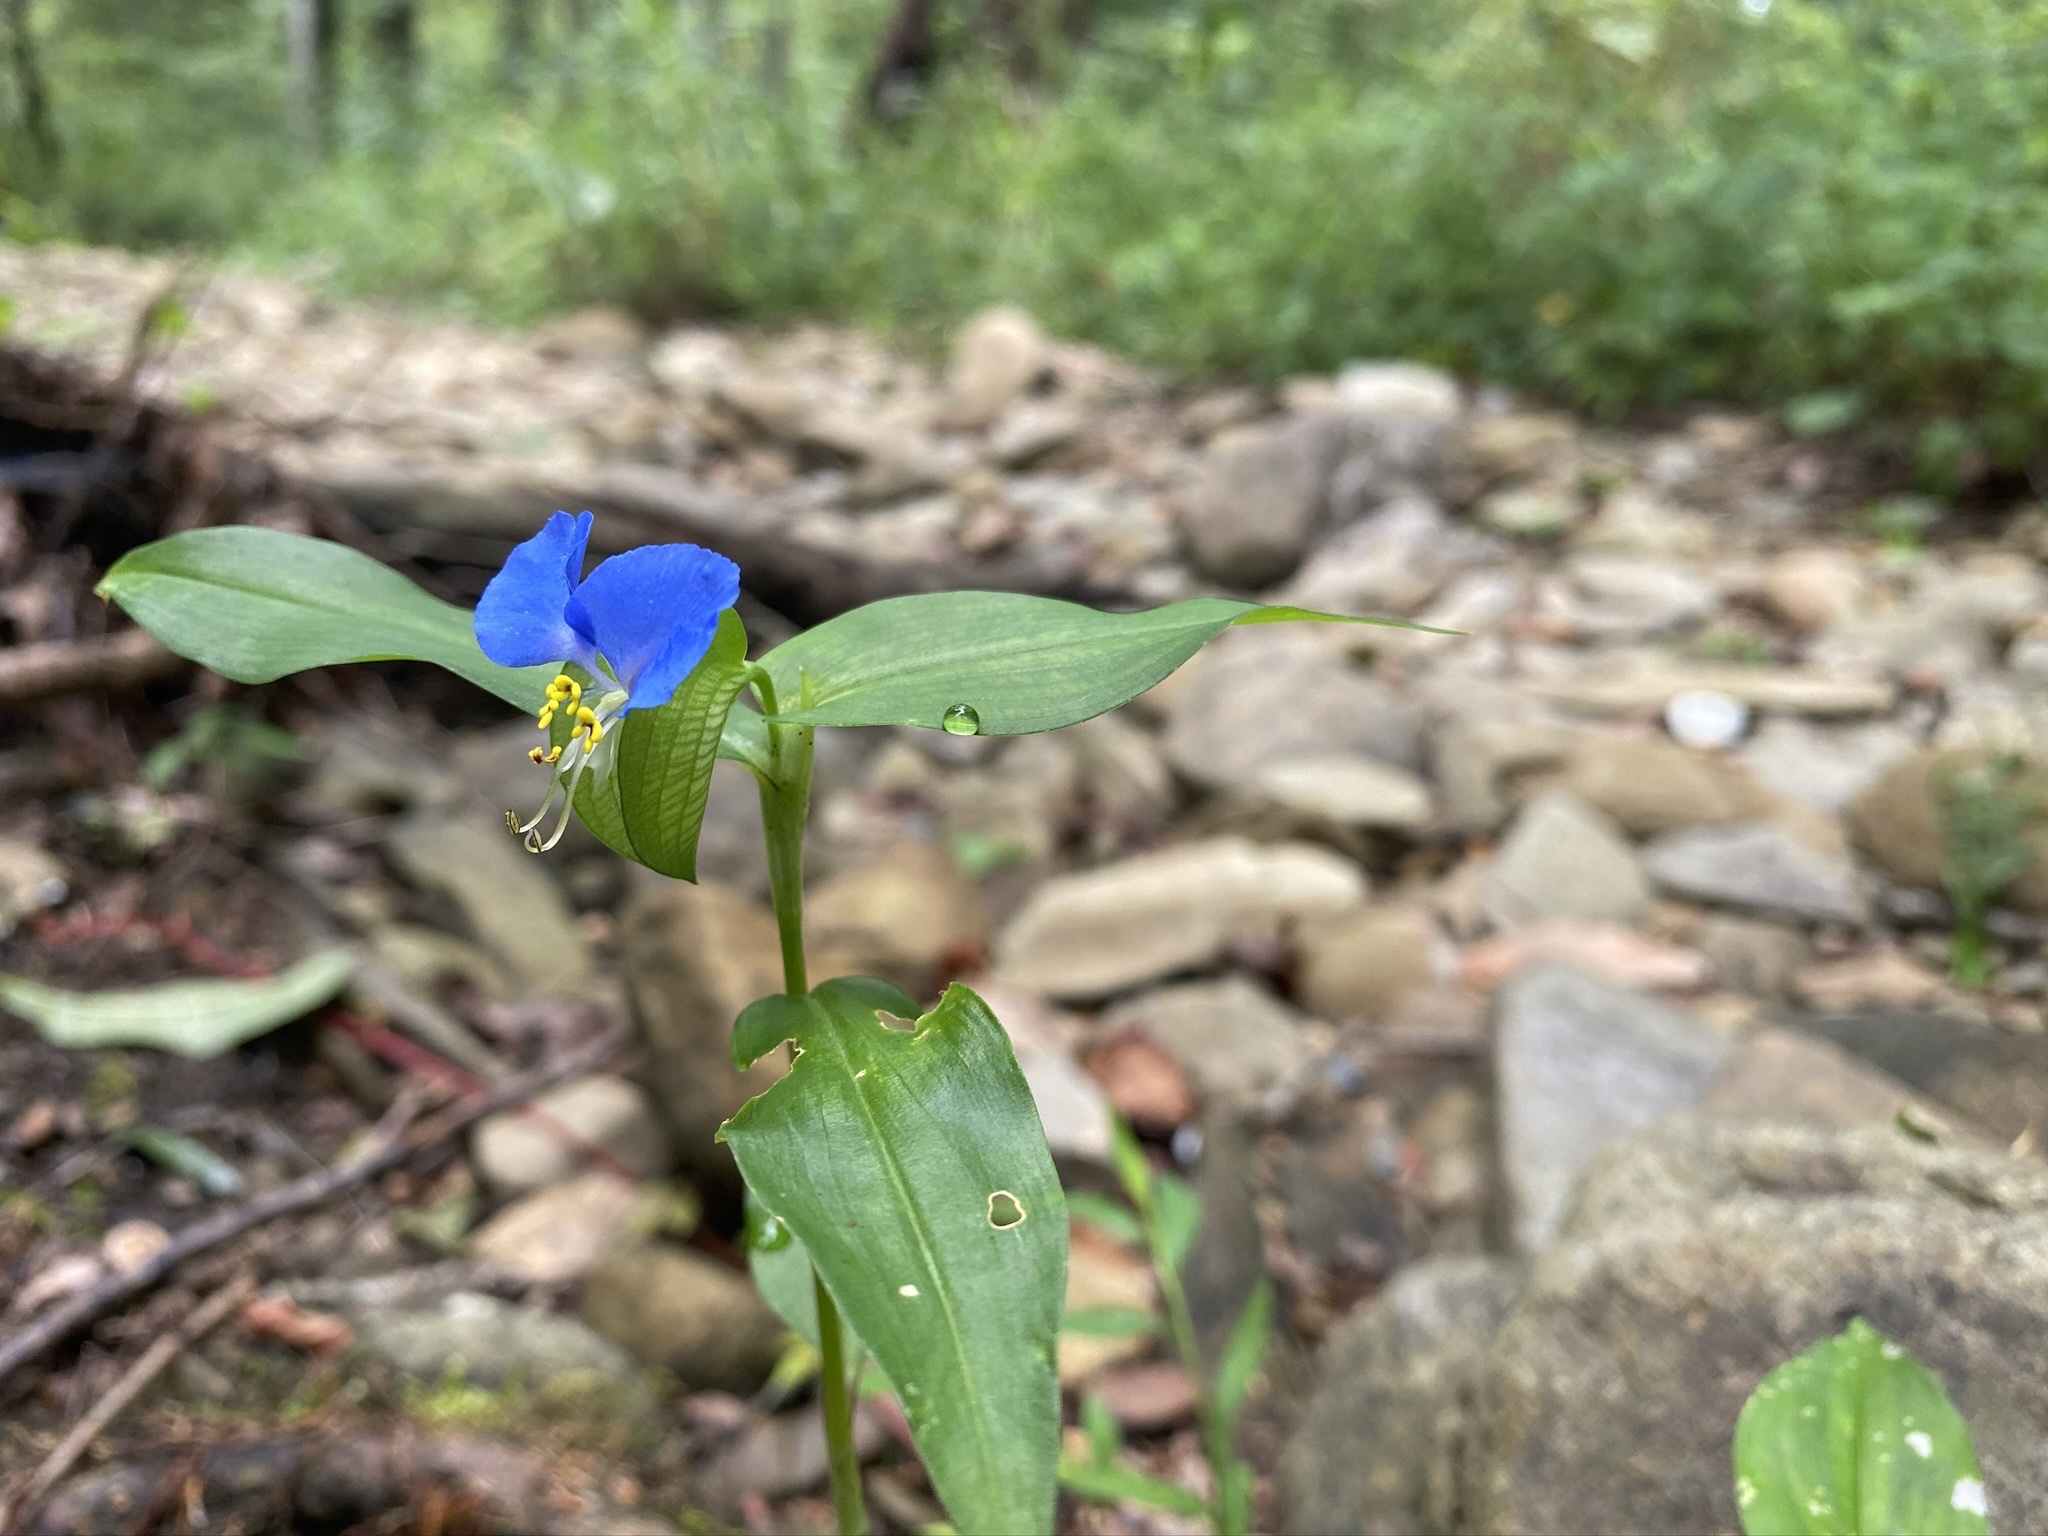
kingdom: Plantae
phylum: Tracheophyta
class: Liliopsida
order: Commelinales
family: Commelinaceae
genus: Commelina
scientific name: Commelina communis
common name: Asiatic dayflower
